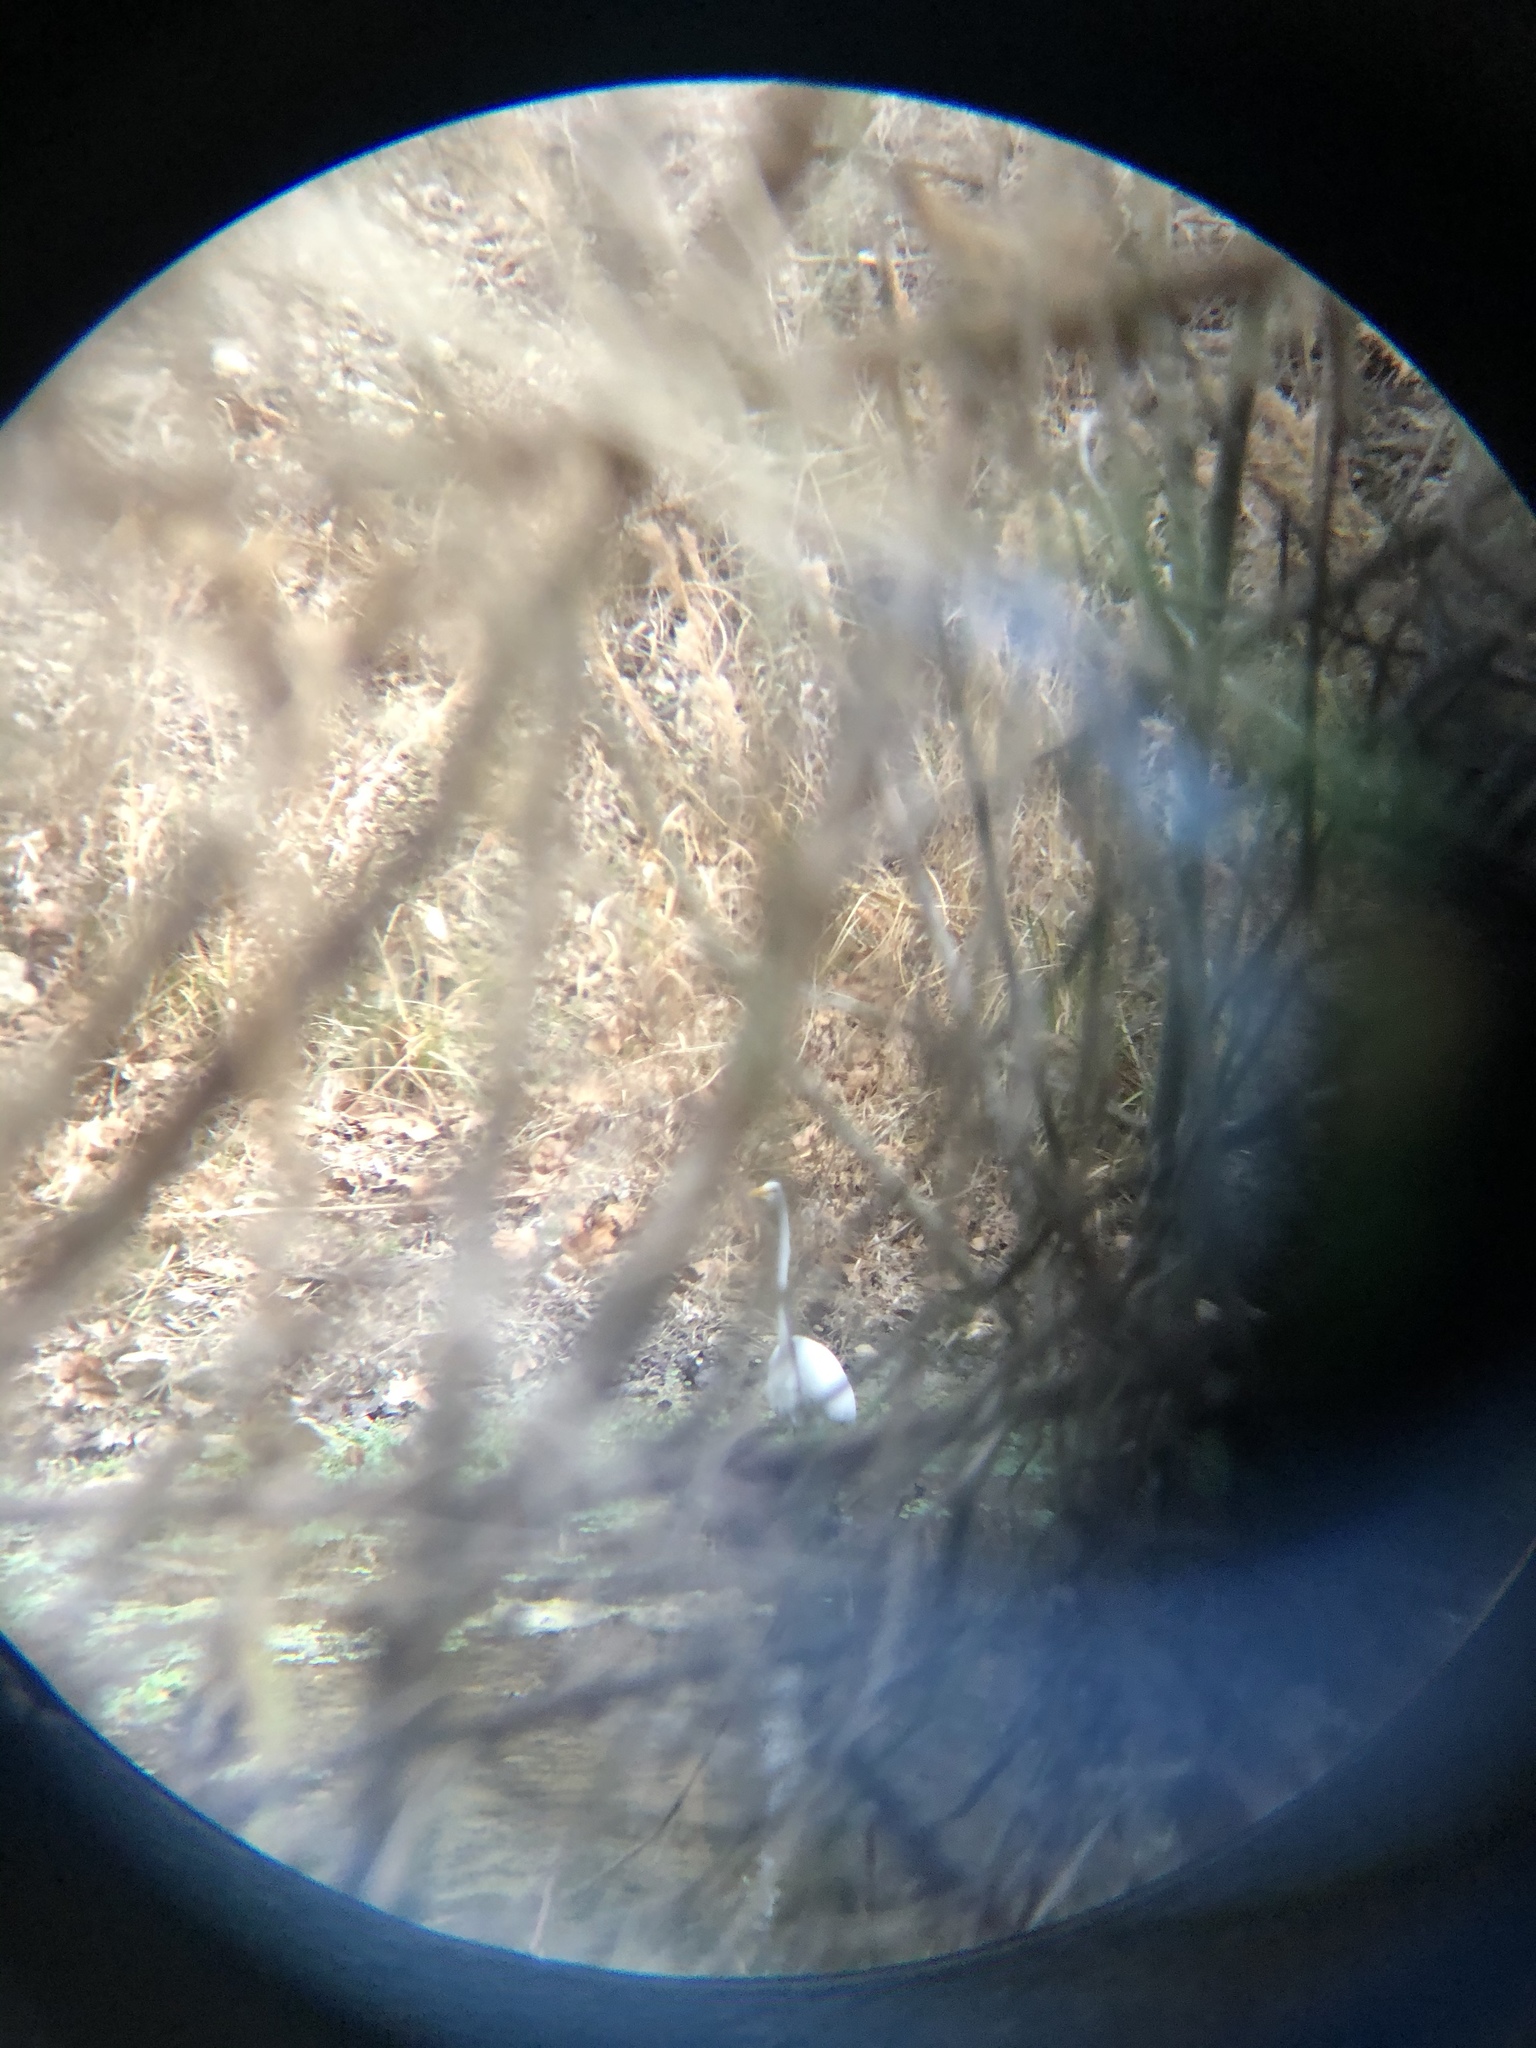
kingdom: Animalia
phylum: Chordata
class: Aves
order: Pelecaniformes
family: Ardeidae
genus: Ardea
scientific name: Ardea alba
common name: Great egret
